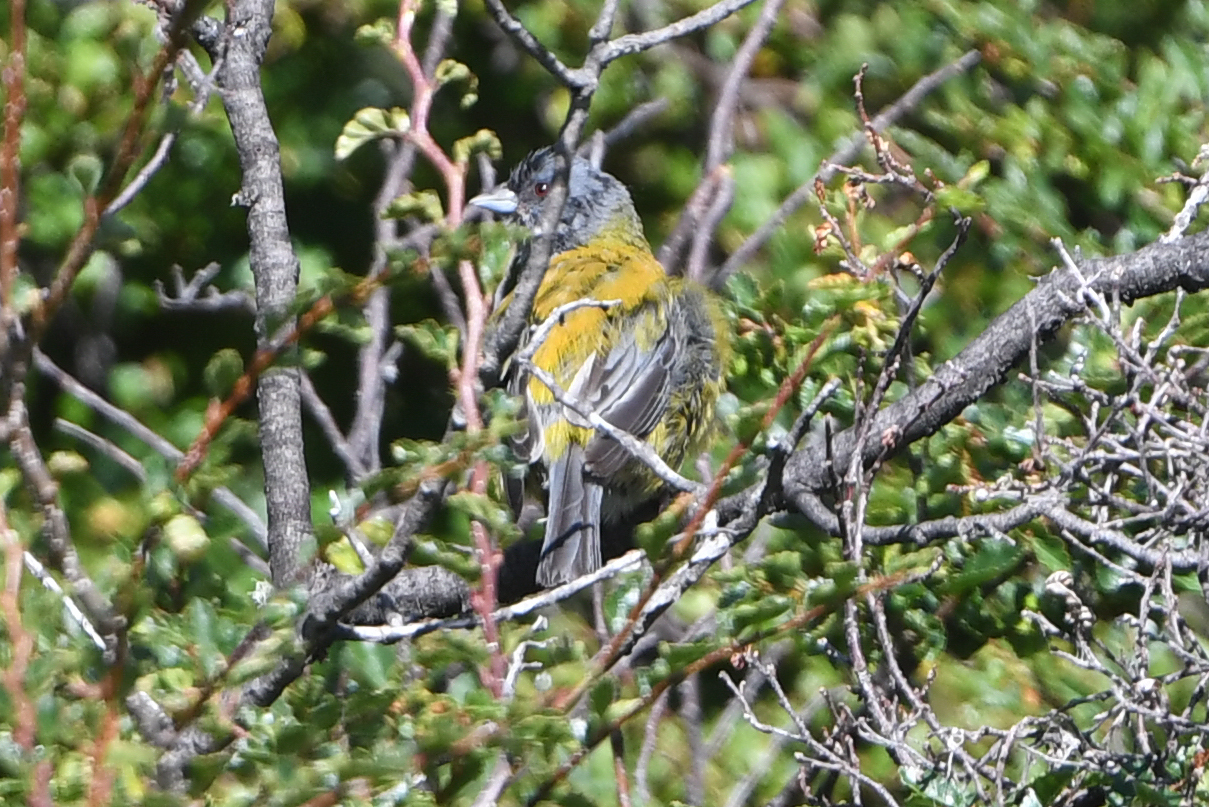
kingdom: Animalia
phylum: Chordata
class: Aves
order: Passeriformes
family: Thraupidae
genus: Phrygilus
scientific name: Phrygilus patagonicus
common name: Patagonian sierra finch
